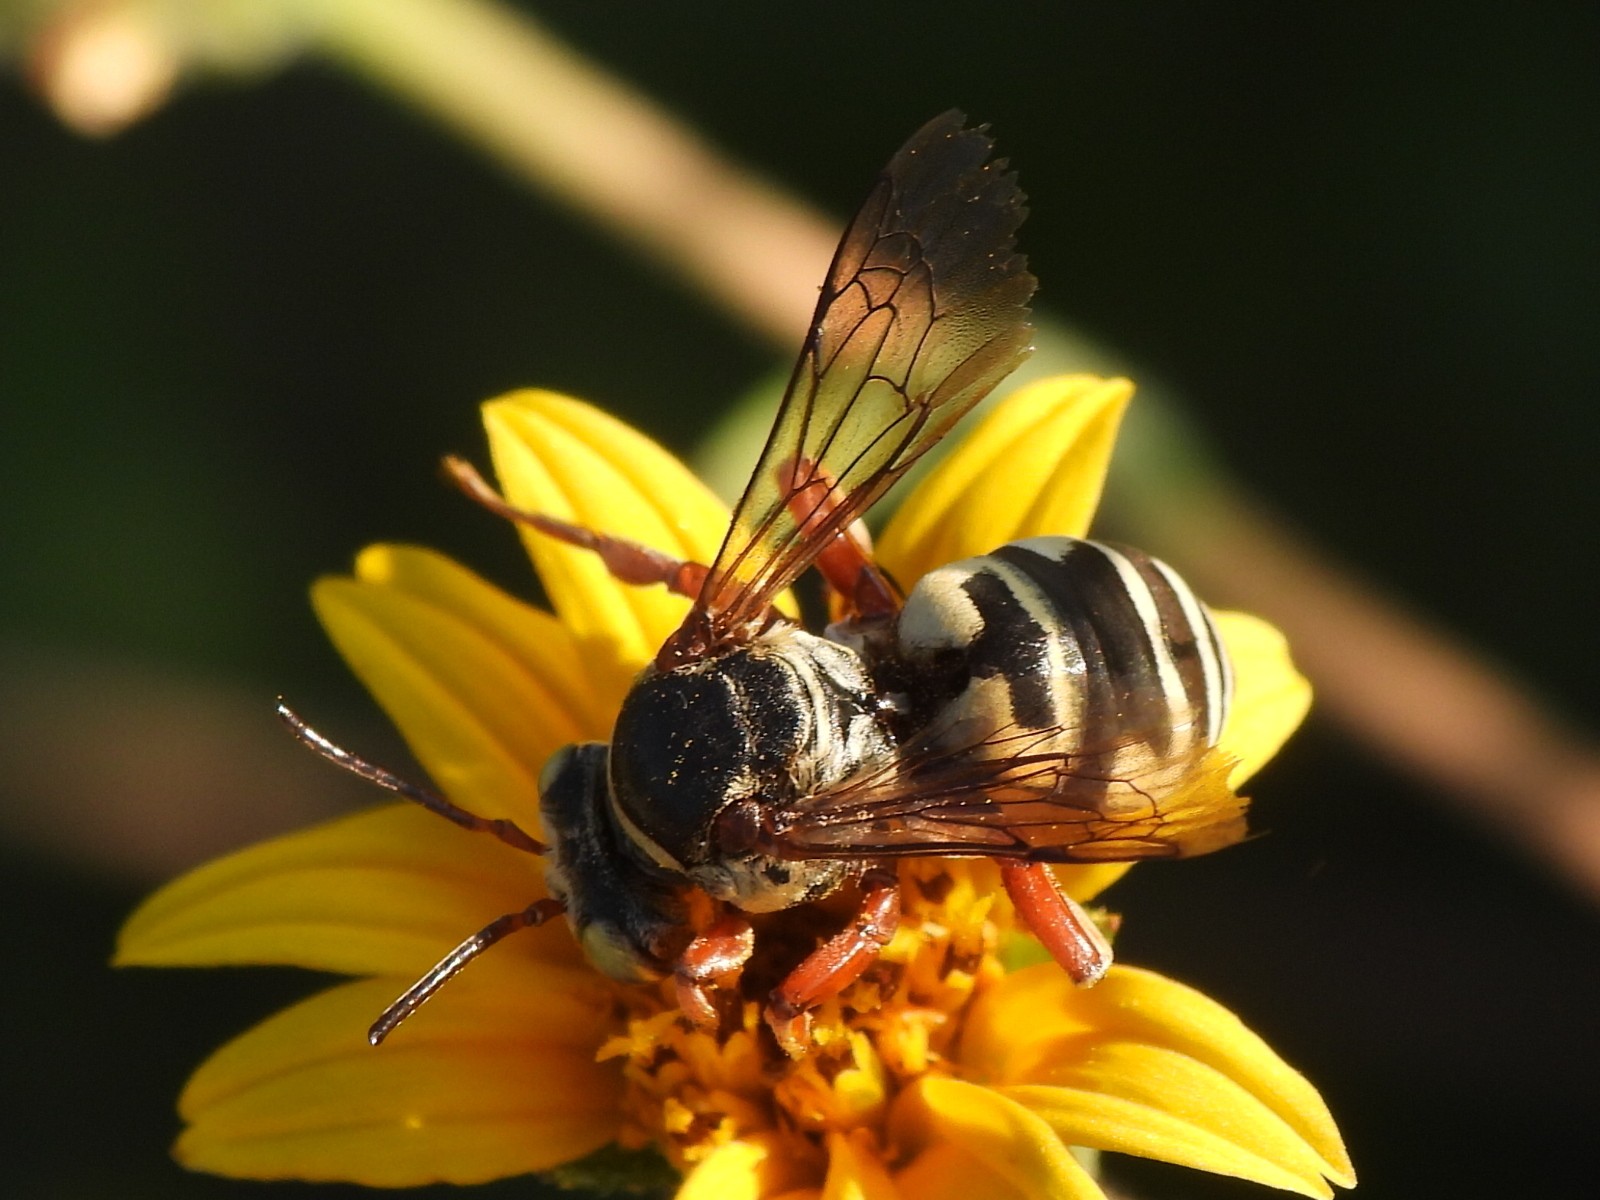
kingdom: Animalia
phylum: Arthropoda
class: Insecta
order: Hymenoptera
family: Apidae
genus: Triepeolus
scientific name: Triepeolus lunatus
